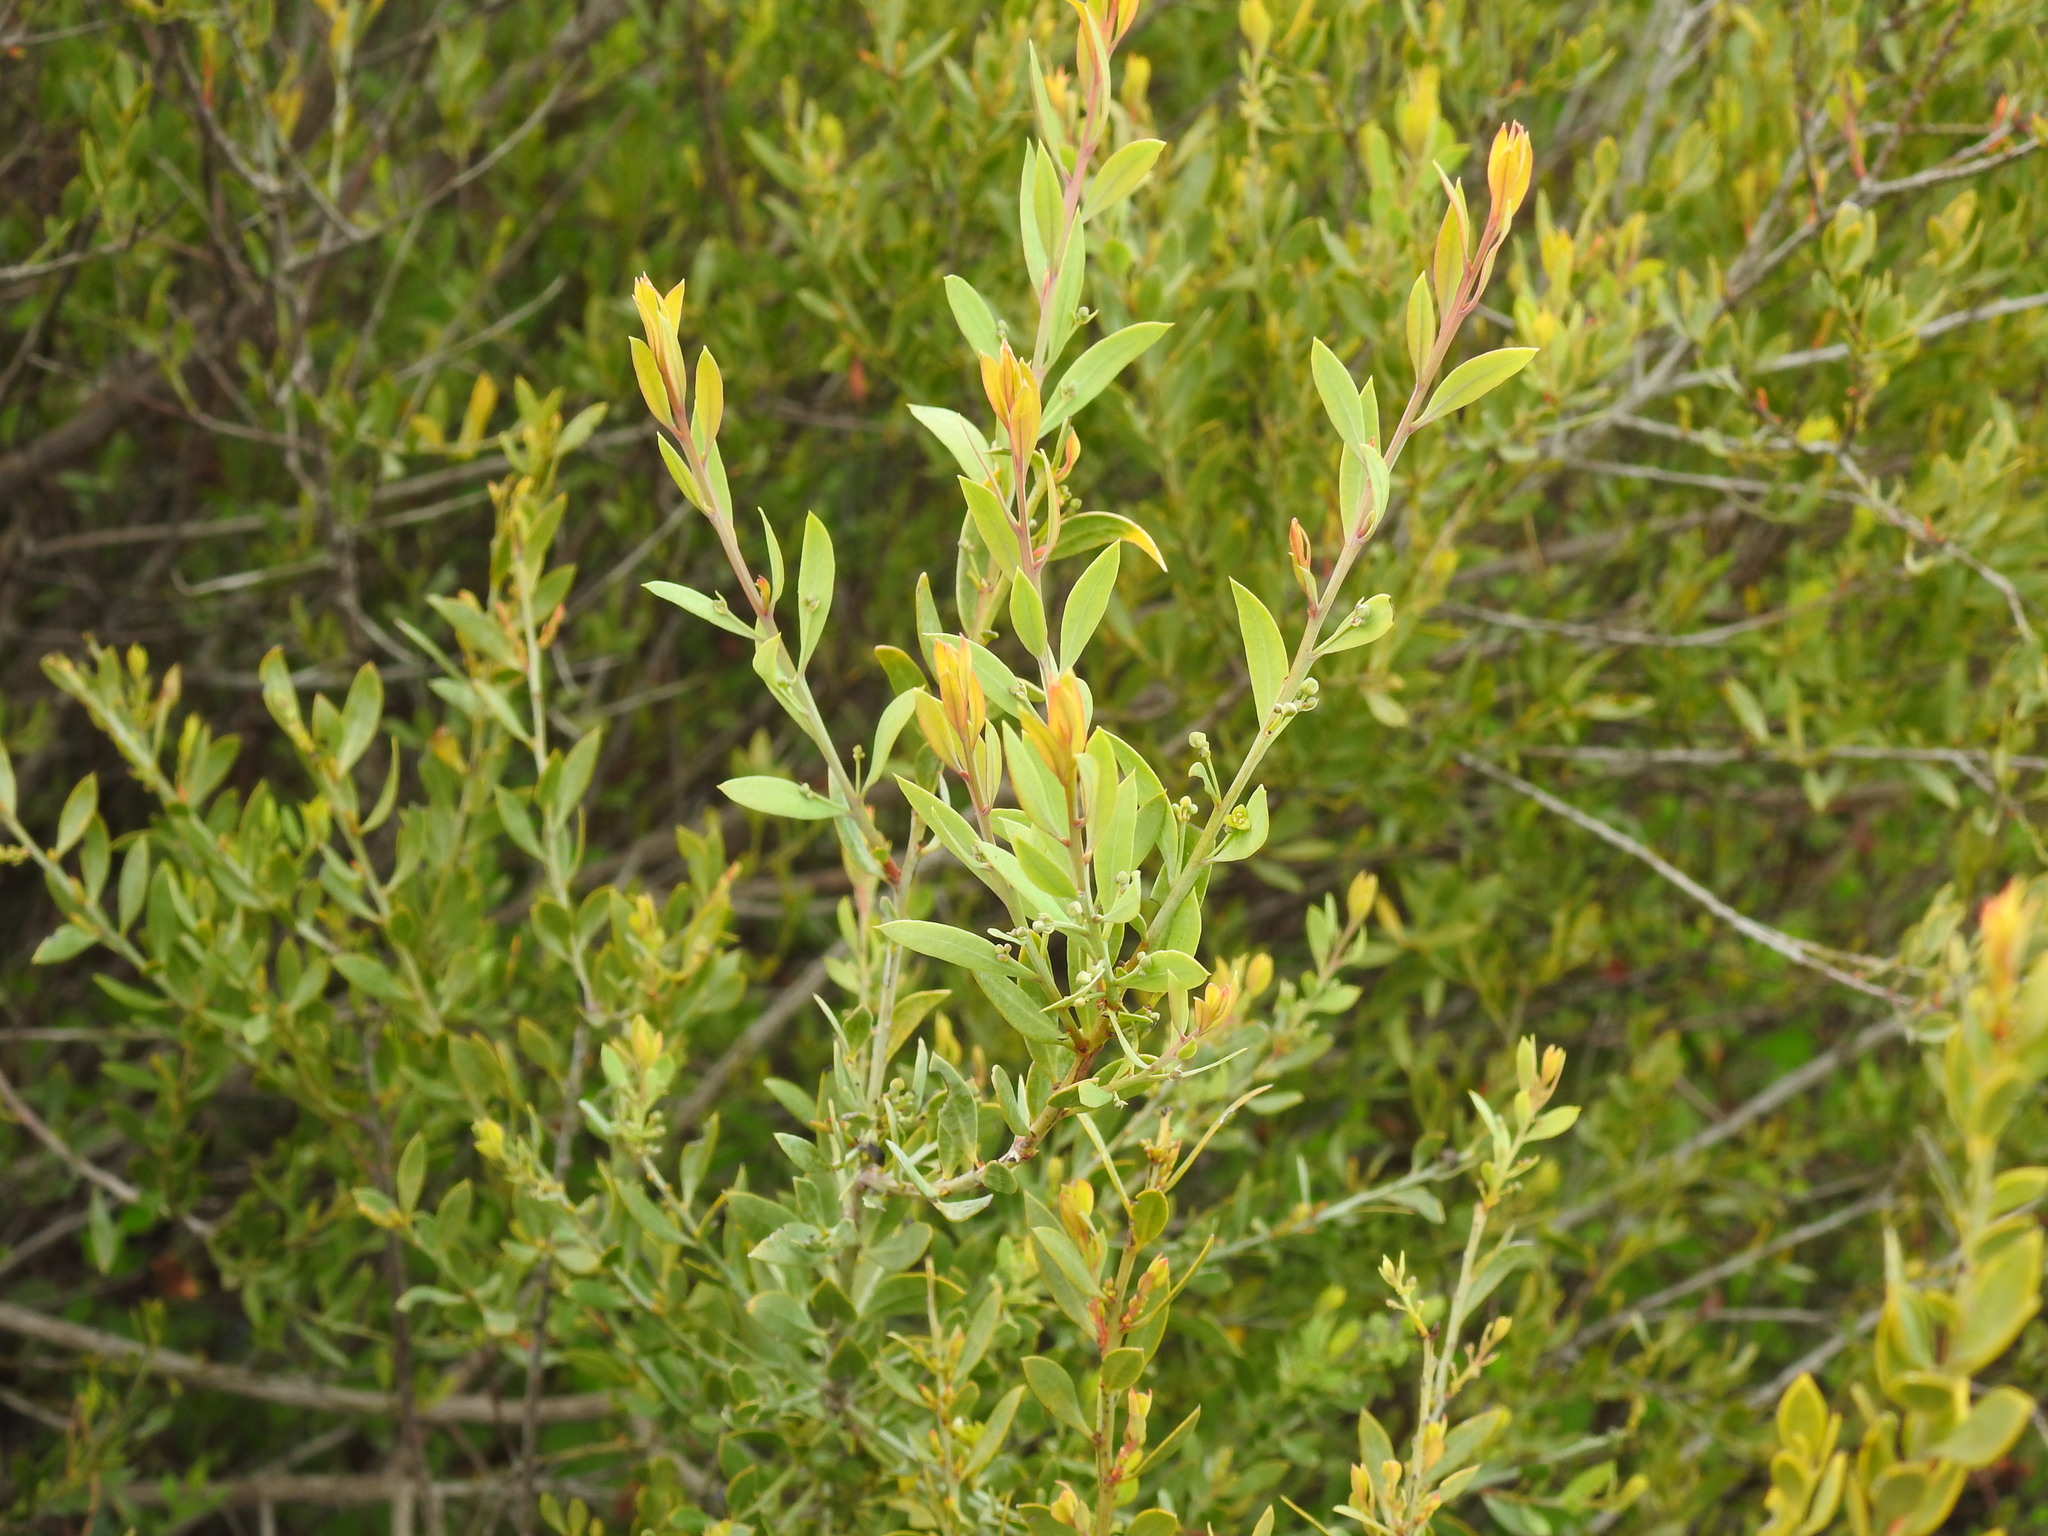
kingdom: Plantae
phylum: Tracheophyta
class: Magnoliopsida
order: Santalales
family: Santalaceae
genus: Osyris
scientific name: Osyris lanceolata
